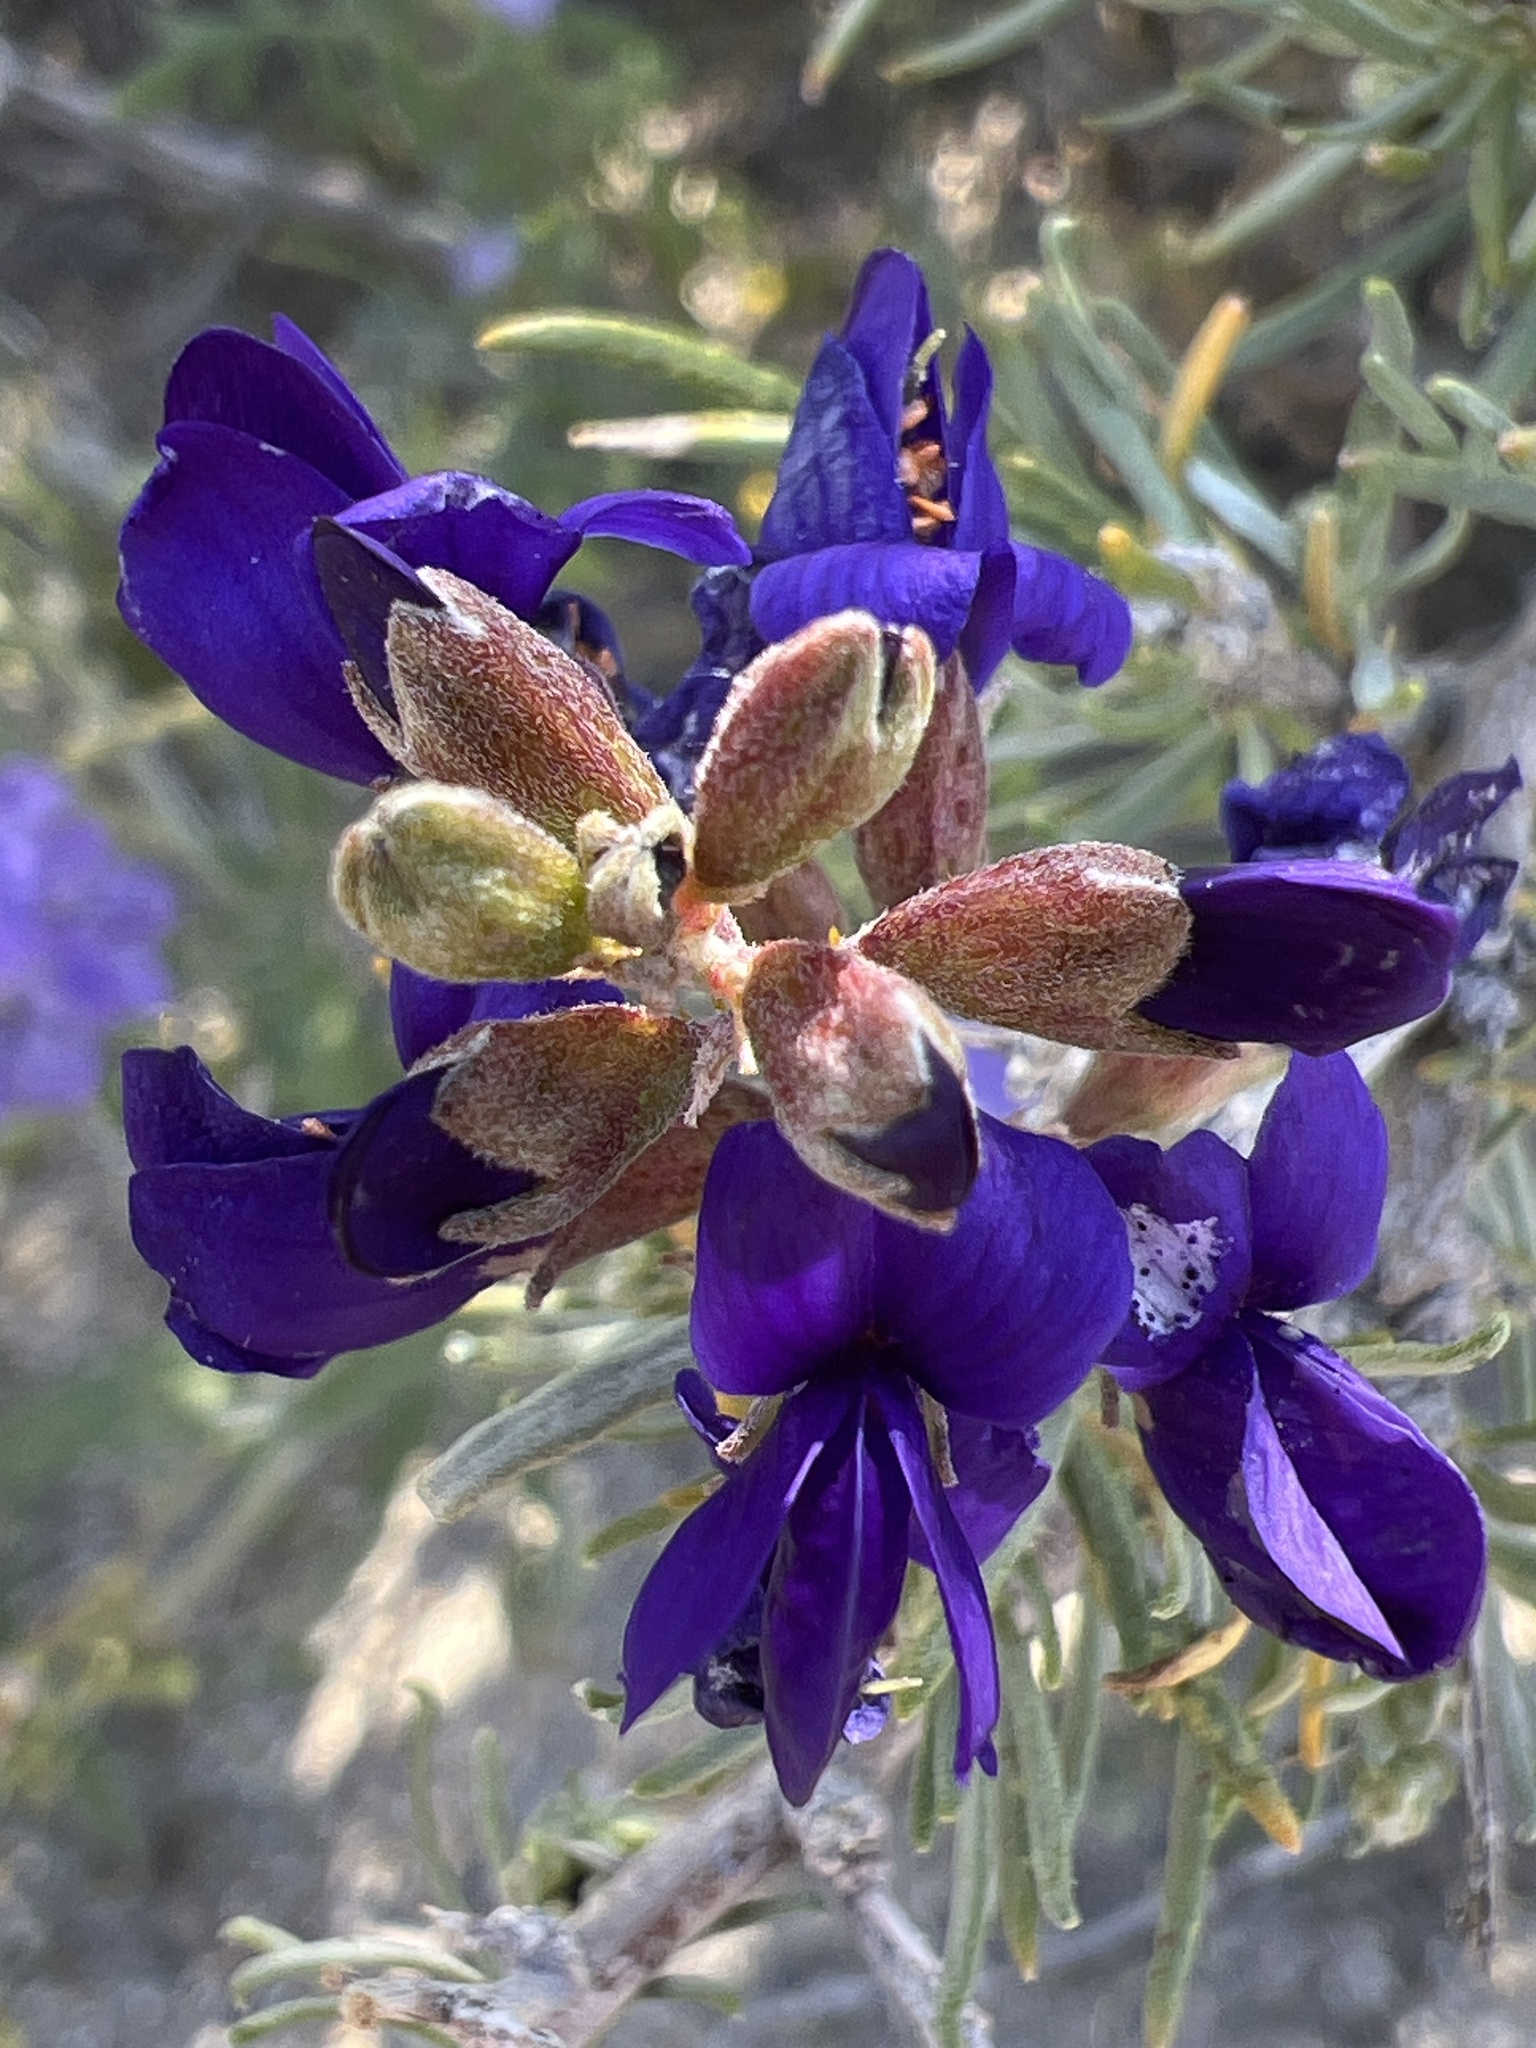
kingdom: Plantae
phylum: Tracheophyta
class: Magnoliopsida
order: Fabales
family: Fabaceae
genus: Psorothamnus
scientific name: Psorothamnus schottii
